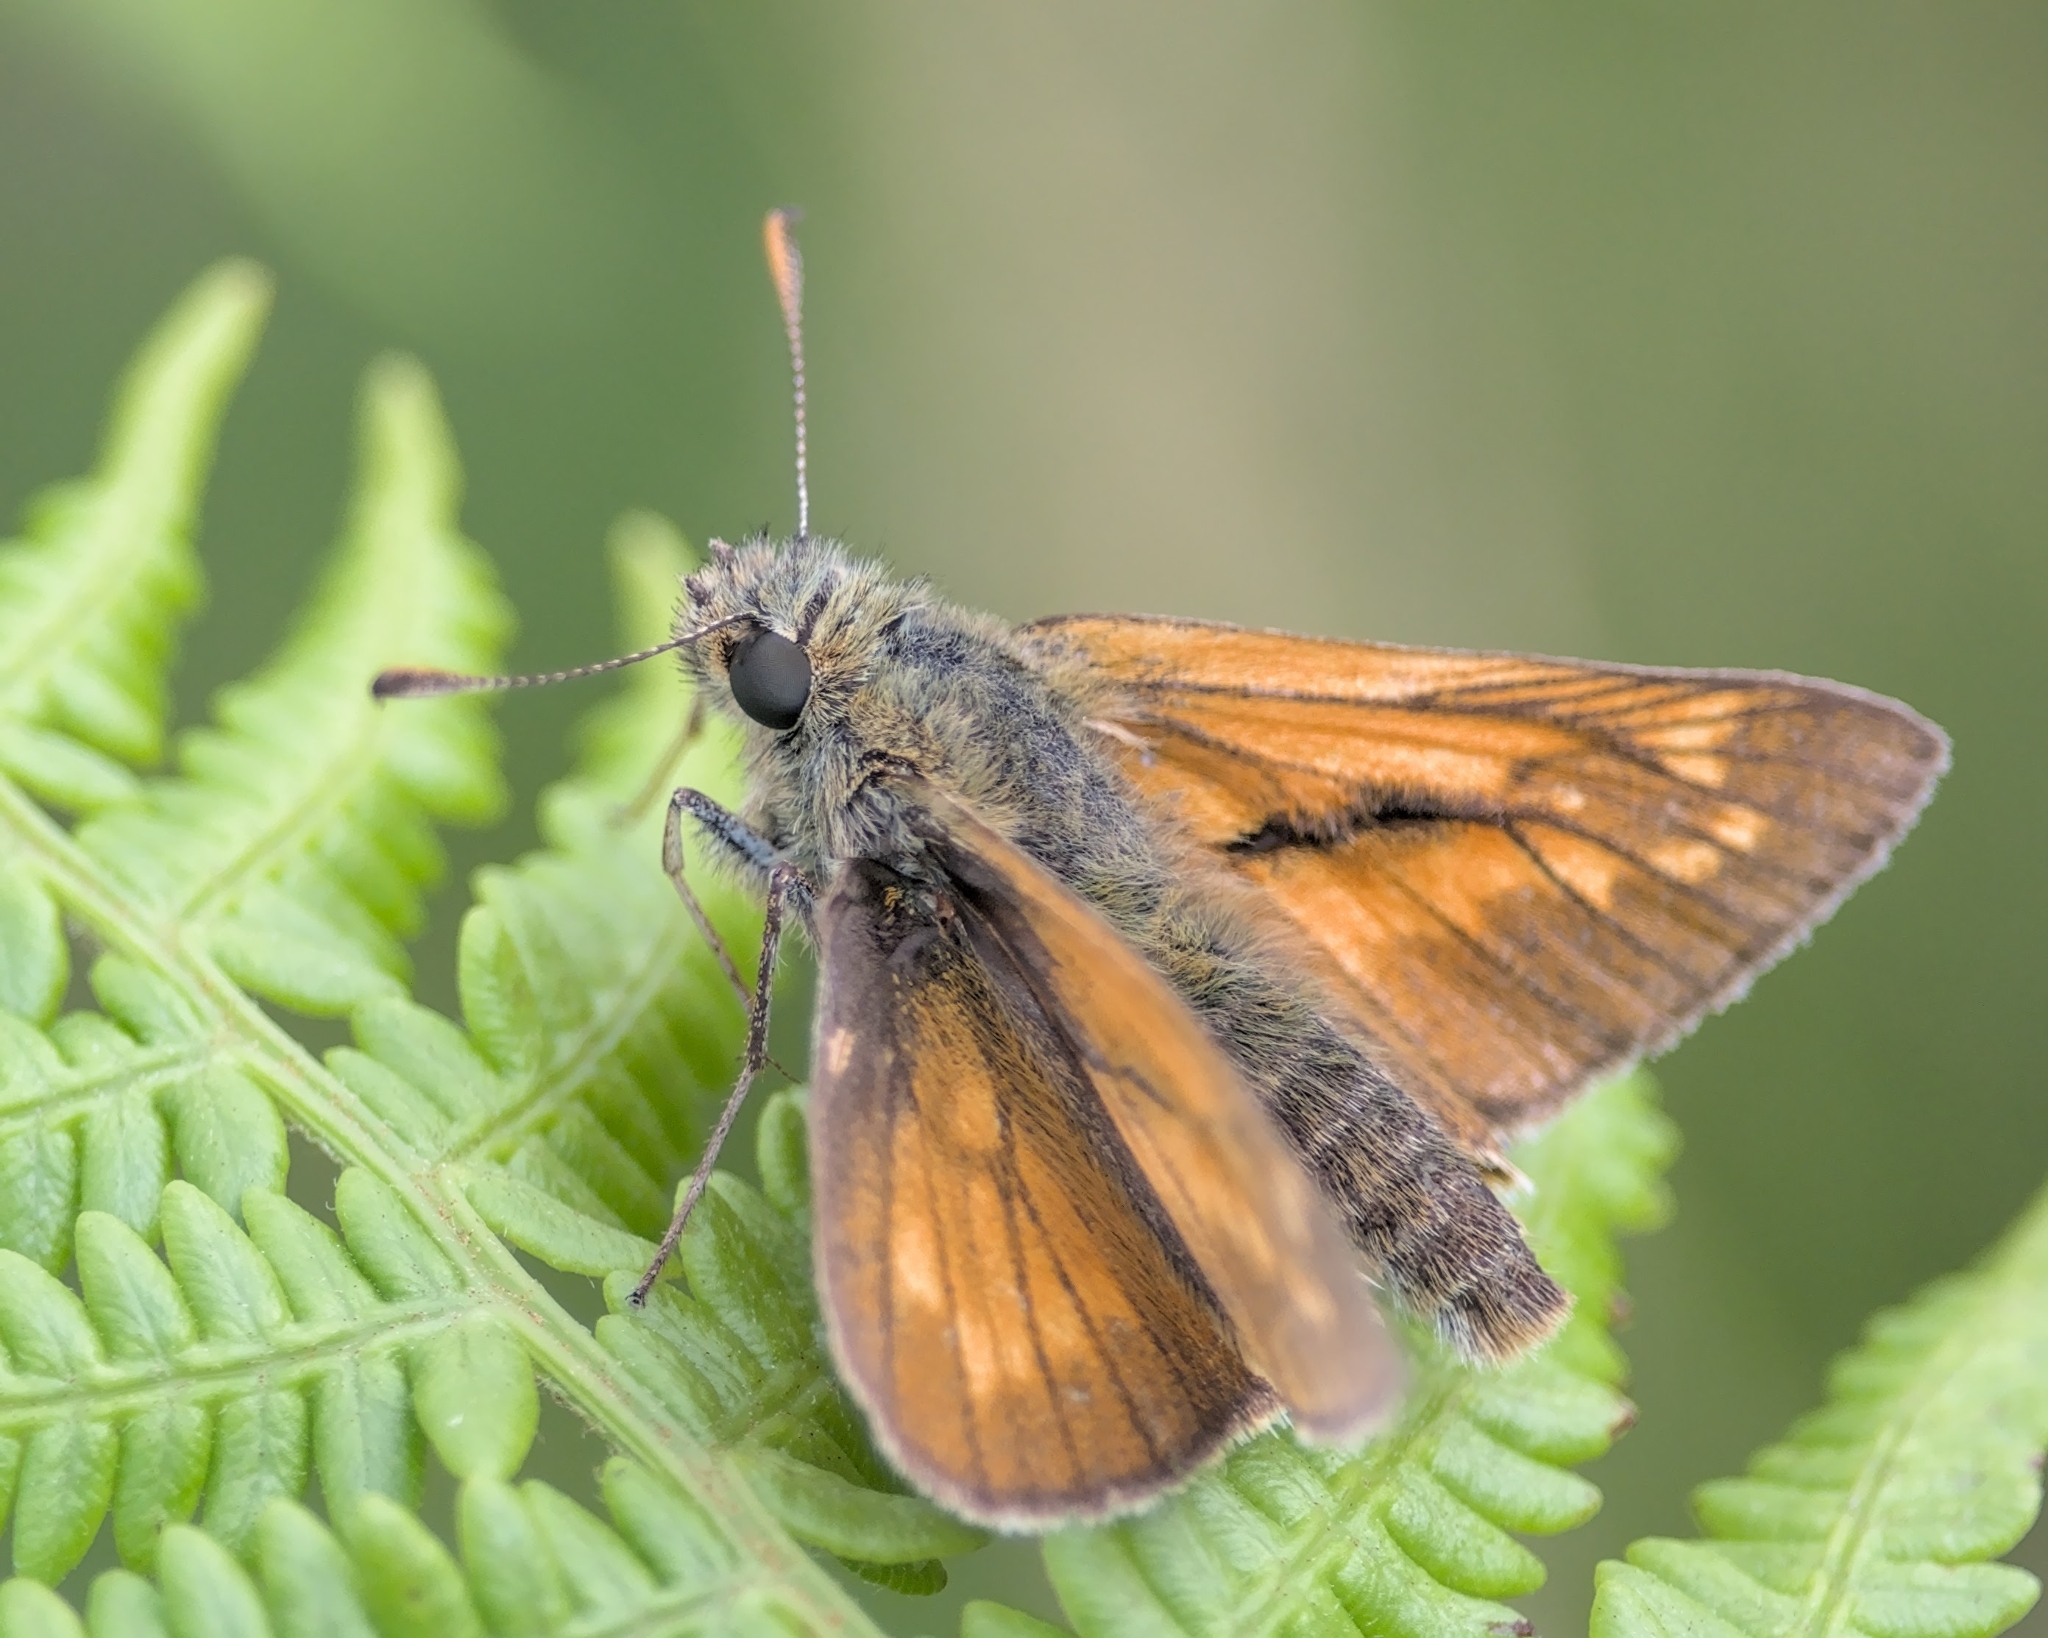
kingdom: Animalia
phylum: Arthropoda
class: Insecta
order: Lepidoptera
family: Hesperiidae
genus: Ochlodes
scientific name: Ochlodes venata
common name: Large skipper
